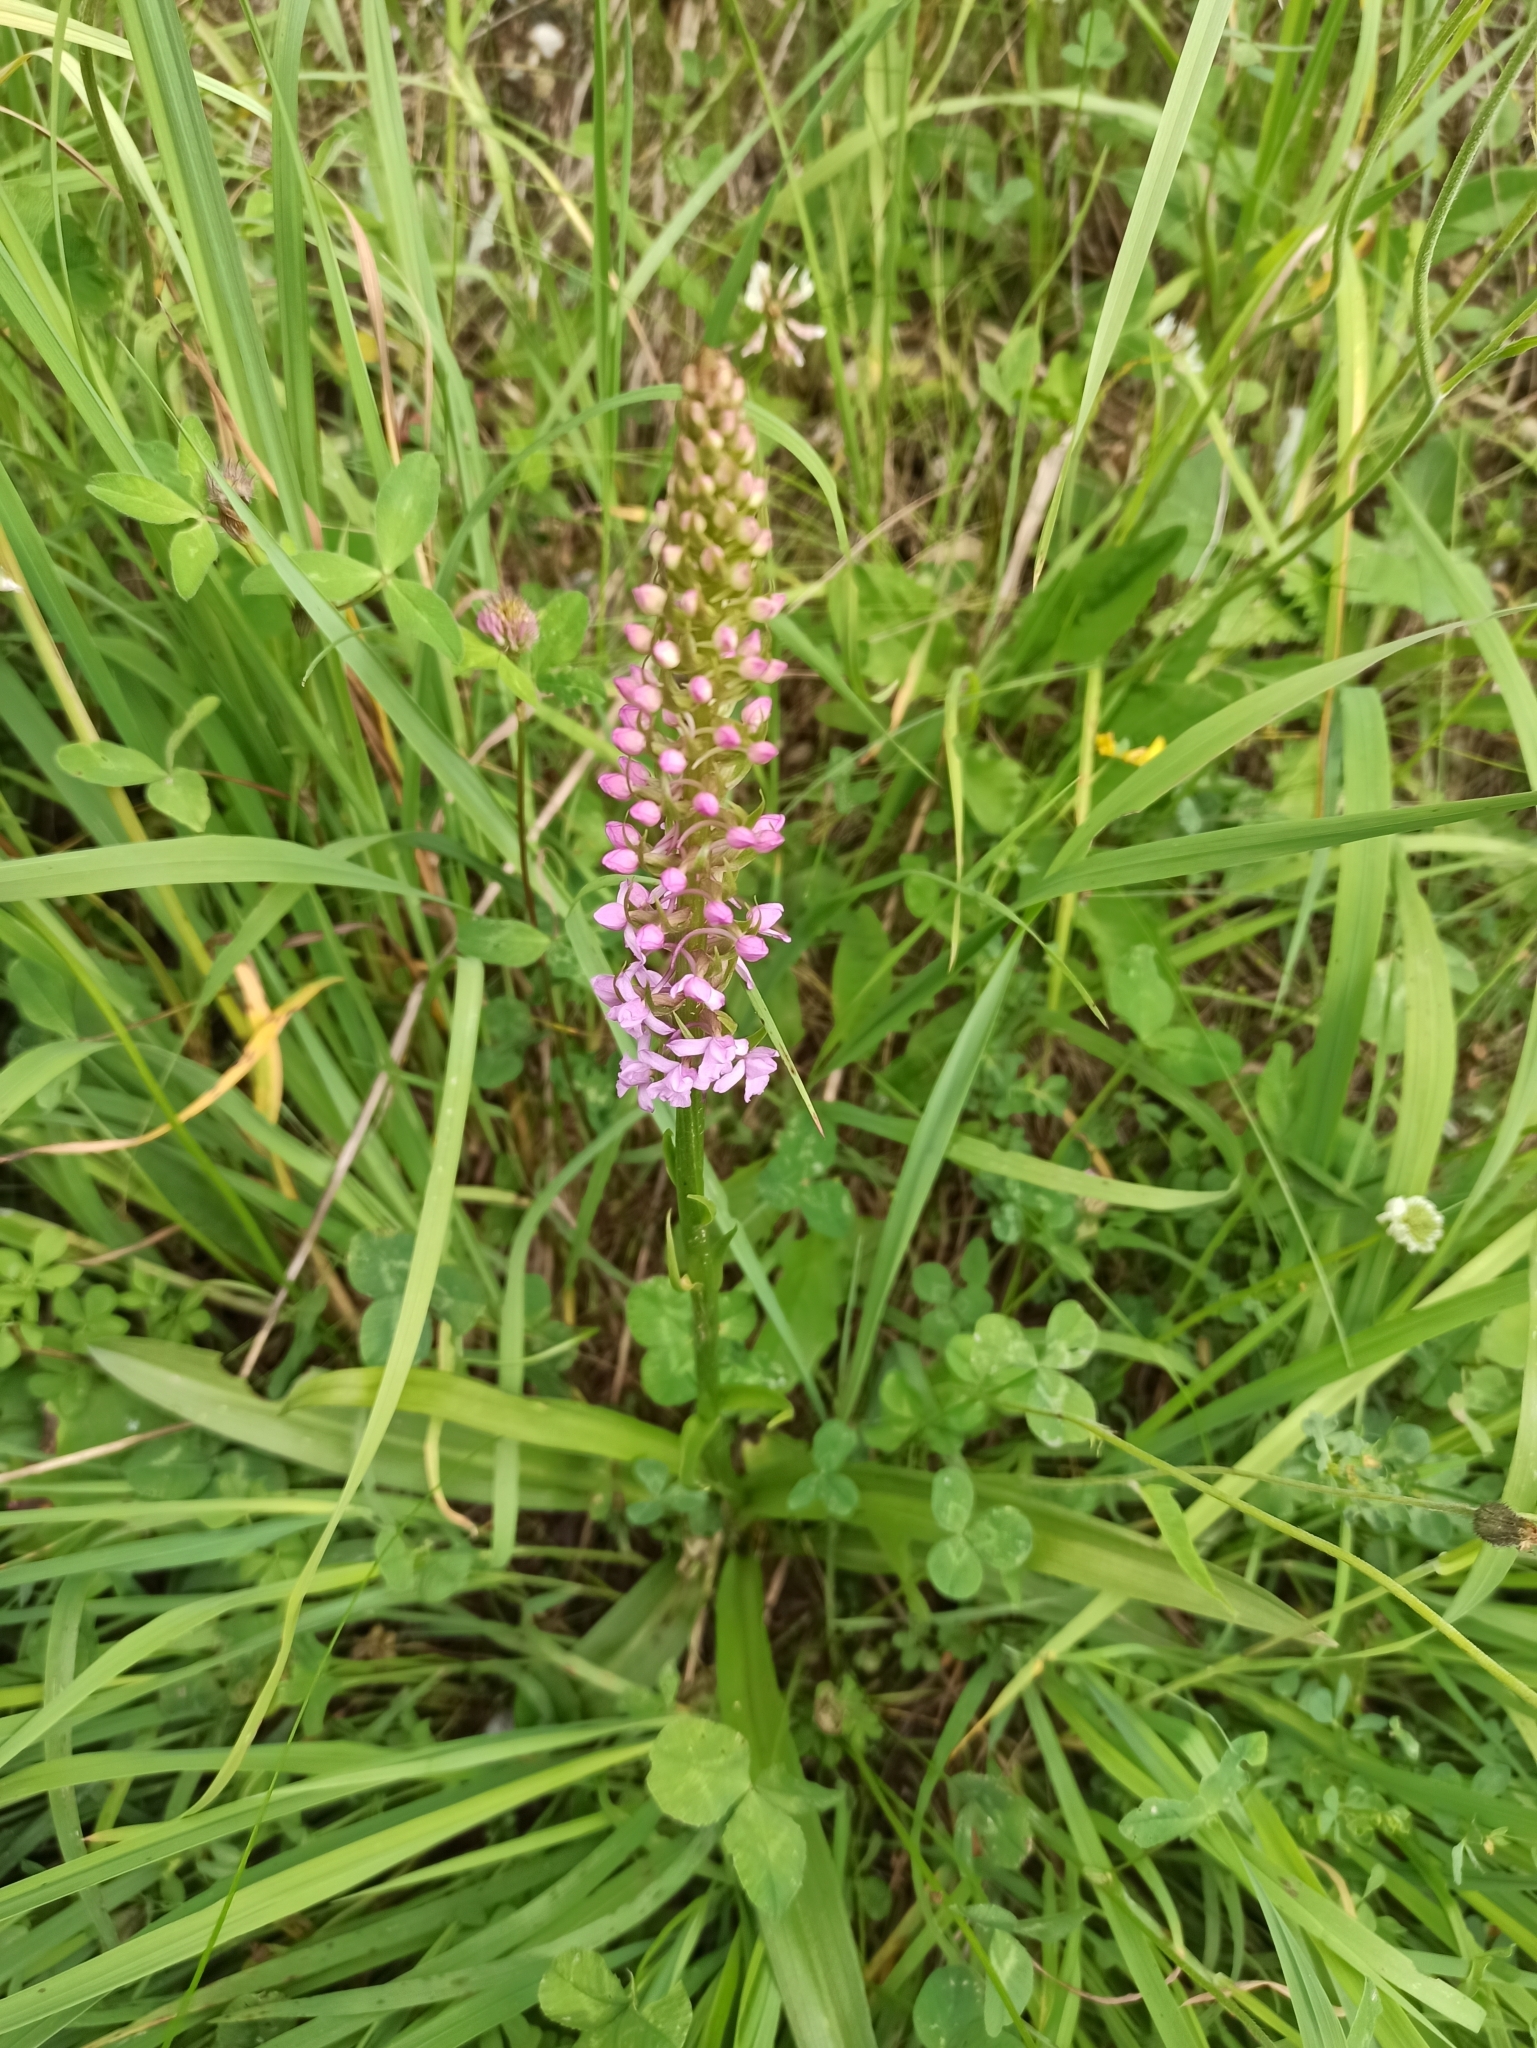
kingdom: Plantae
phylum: Tracheophyta
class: Liliopsida
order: Asparagales
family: Orchidaceae
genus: Gymnadenia
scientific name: Gymnadenia conopsea
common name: Fragrant orchid
